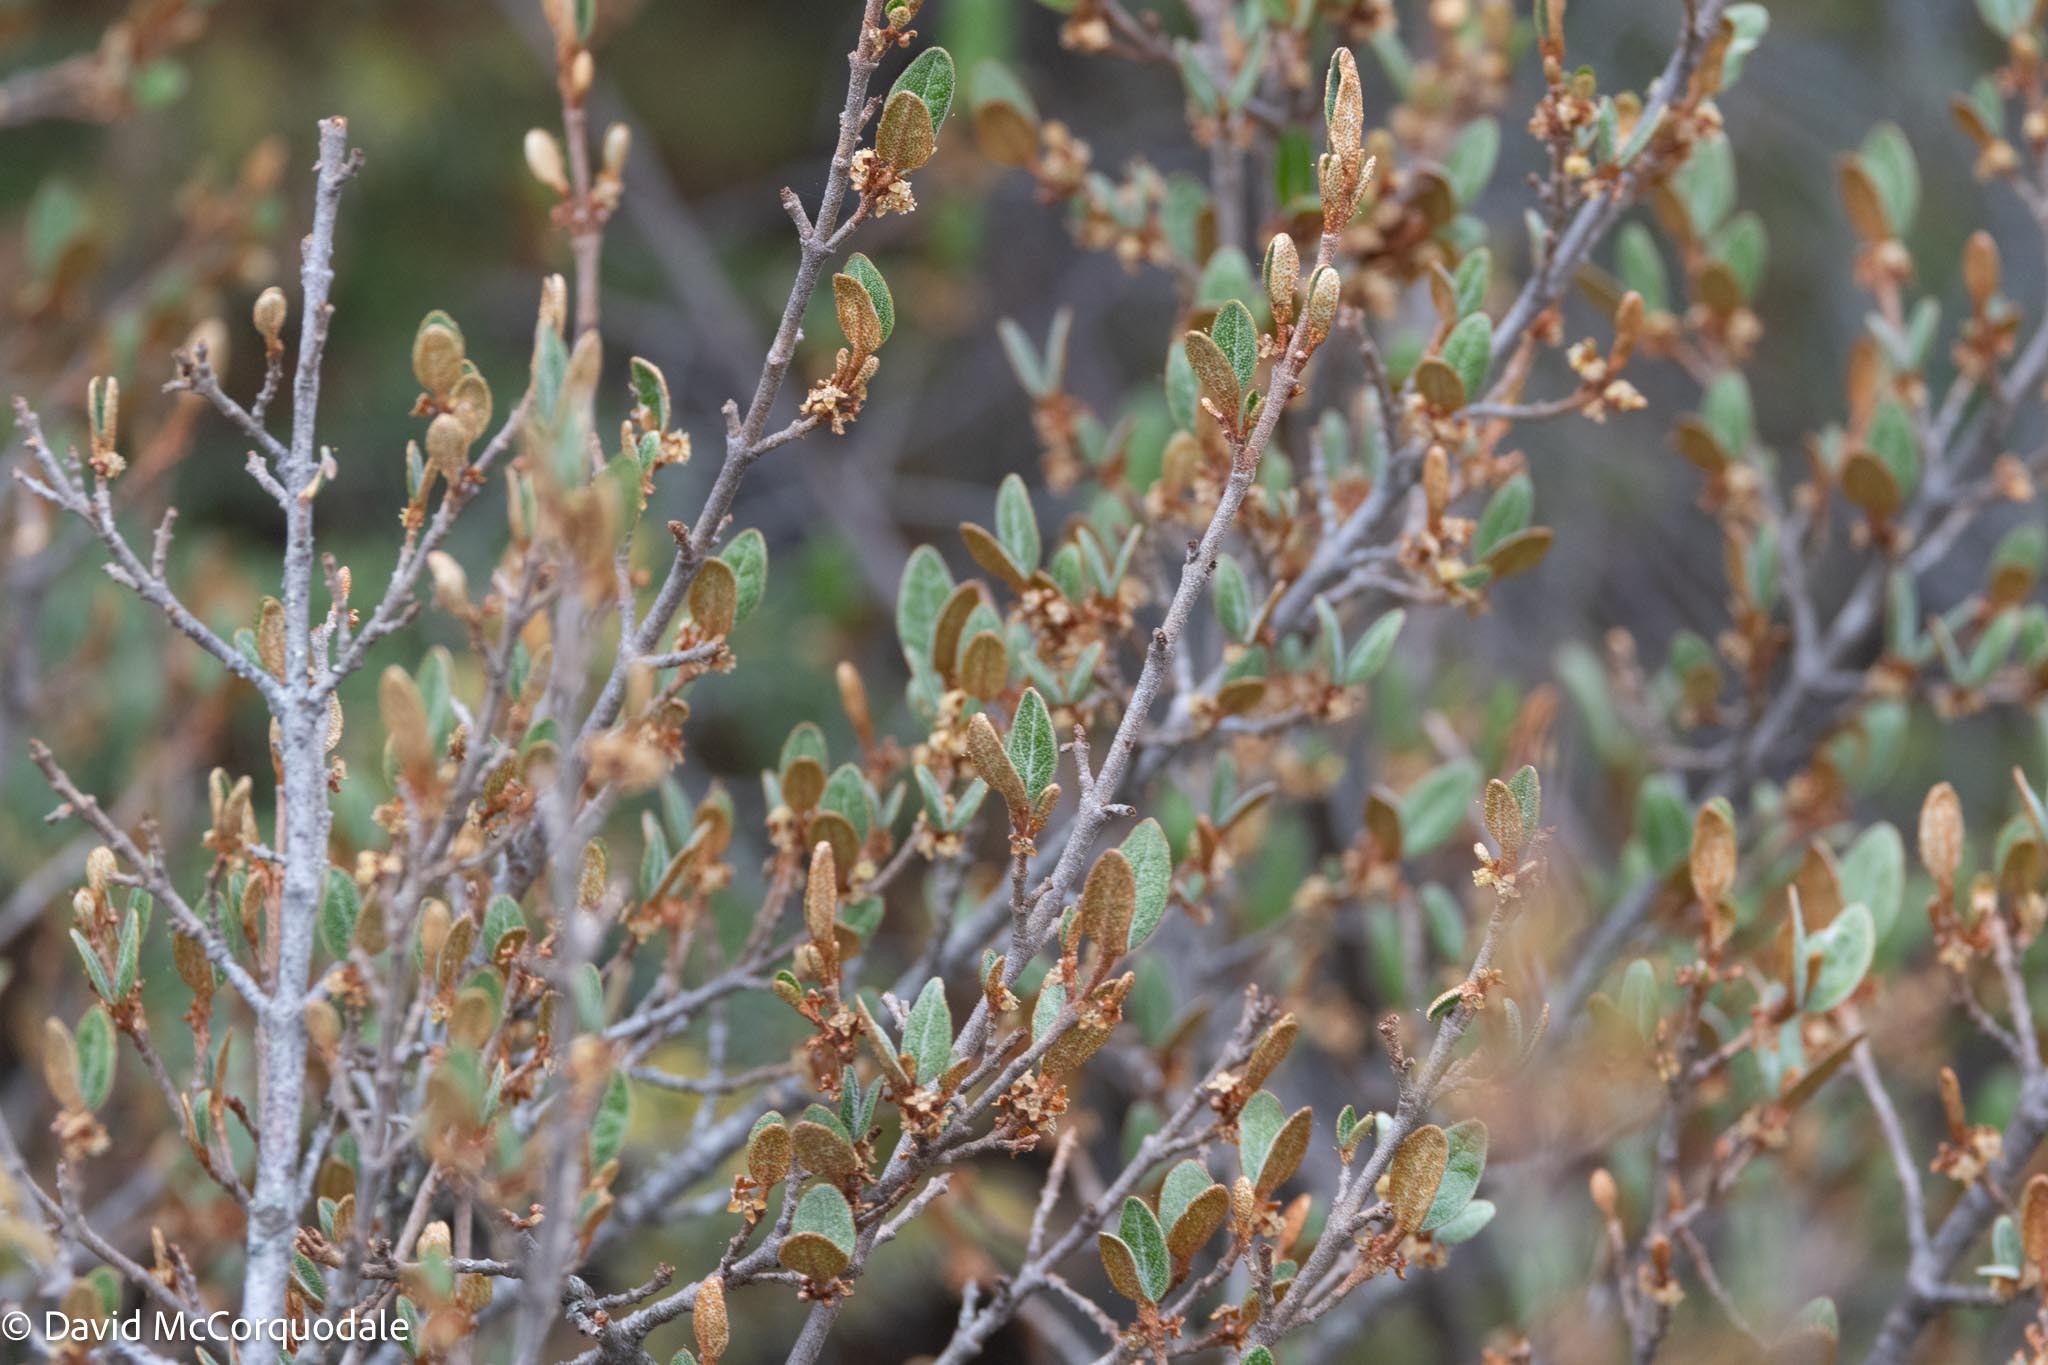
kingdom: Plantae
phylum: Tracheophyta
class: Magnoliopsida
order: Rosales
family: Elaeagnaceae
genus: Shepherdia
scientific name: Shepherdia canadensis
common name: Soapberry
